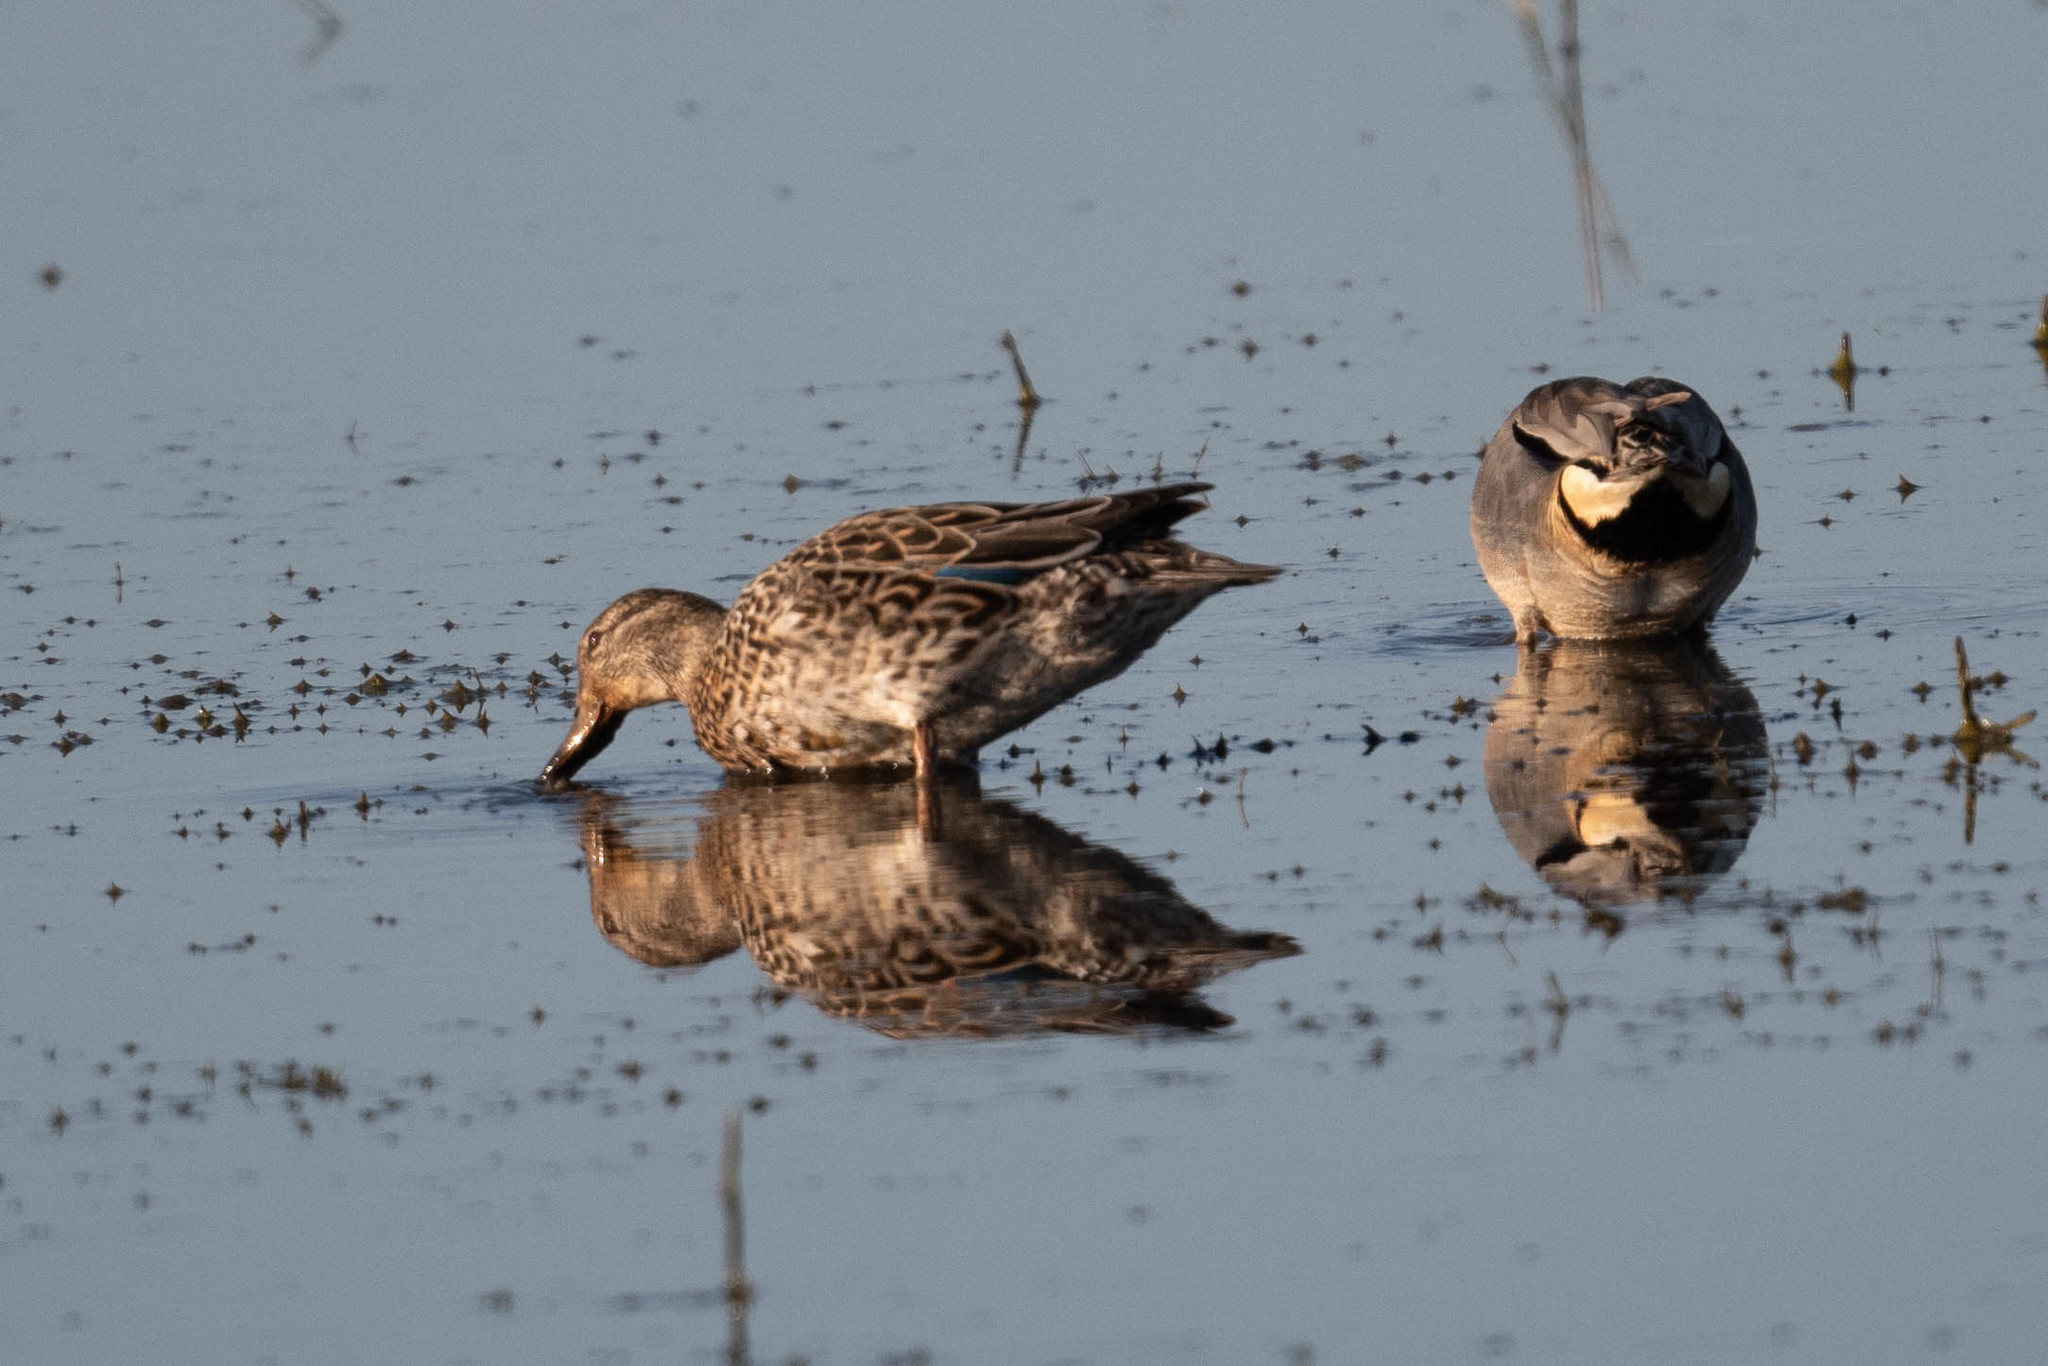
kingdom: Animalia
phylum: Chordata
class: Aves
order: Anseriformes
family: Anatidae
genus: Anas
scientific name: Anas crecca
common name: Eurasian teal
